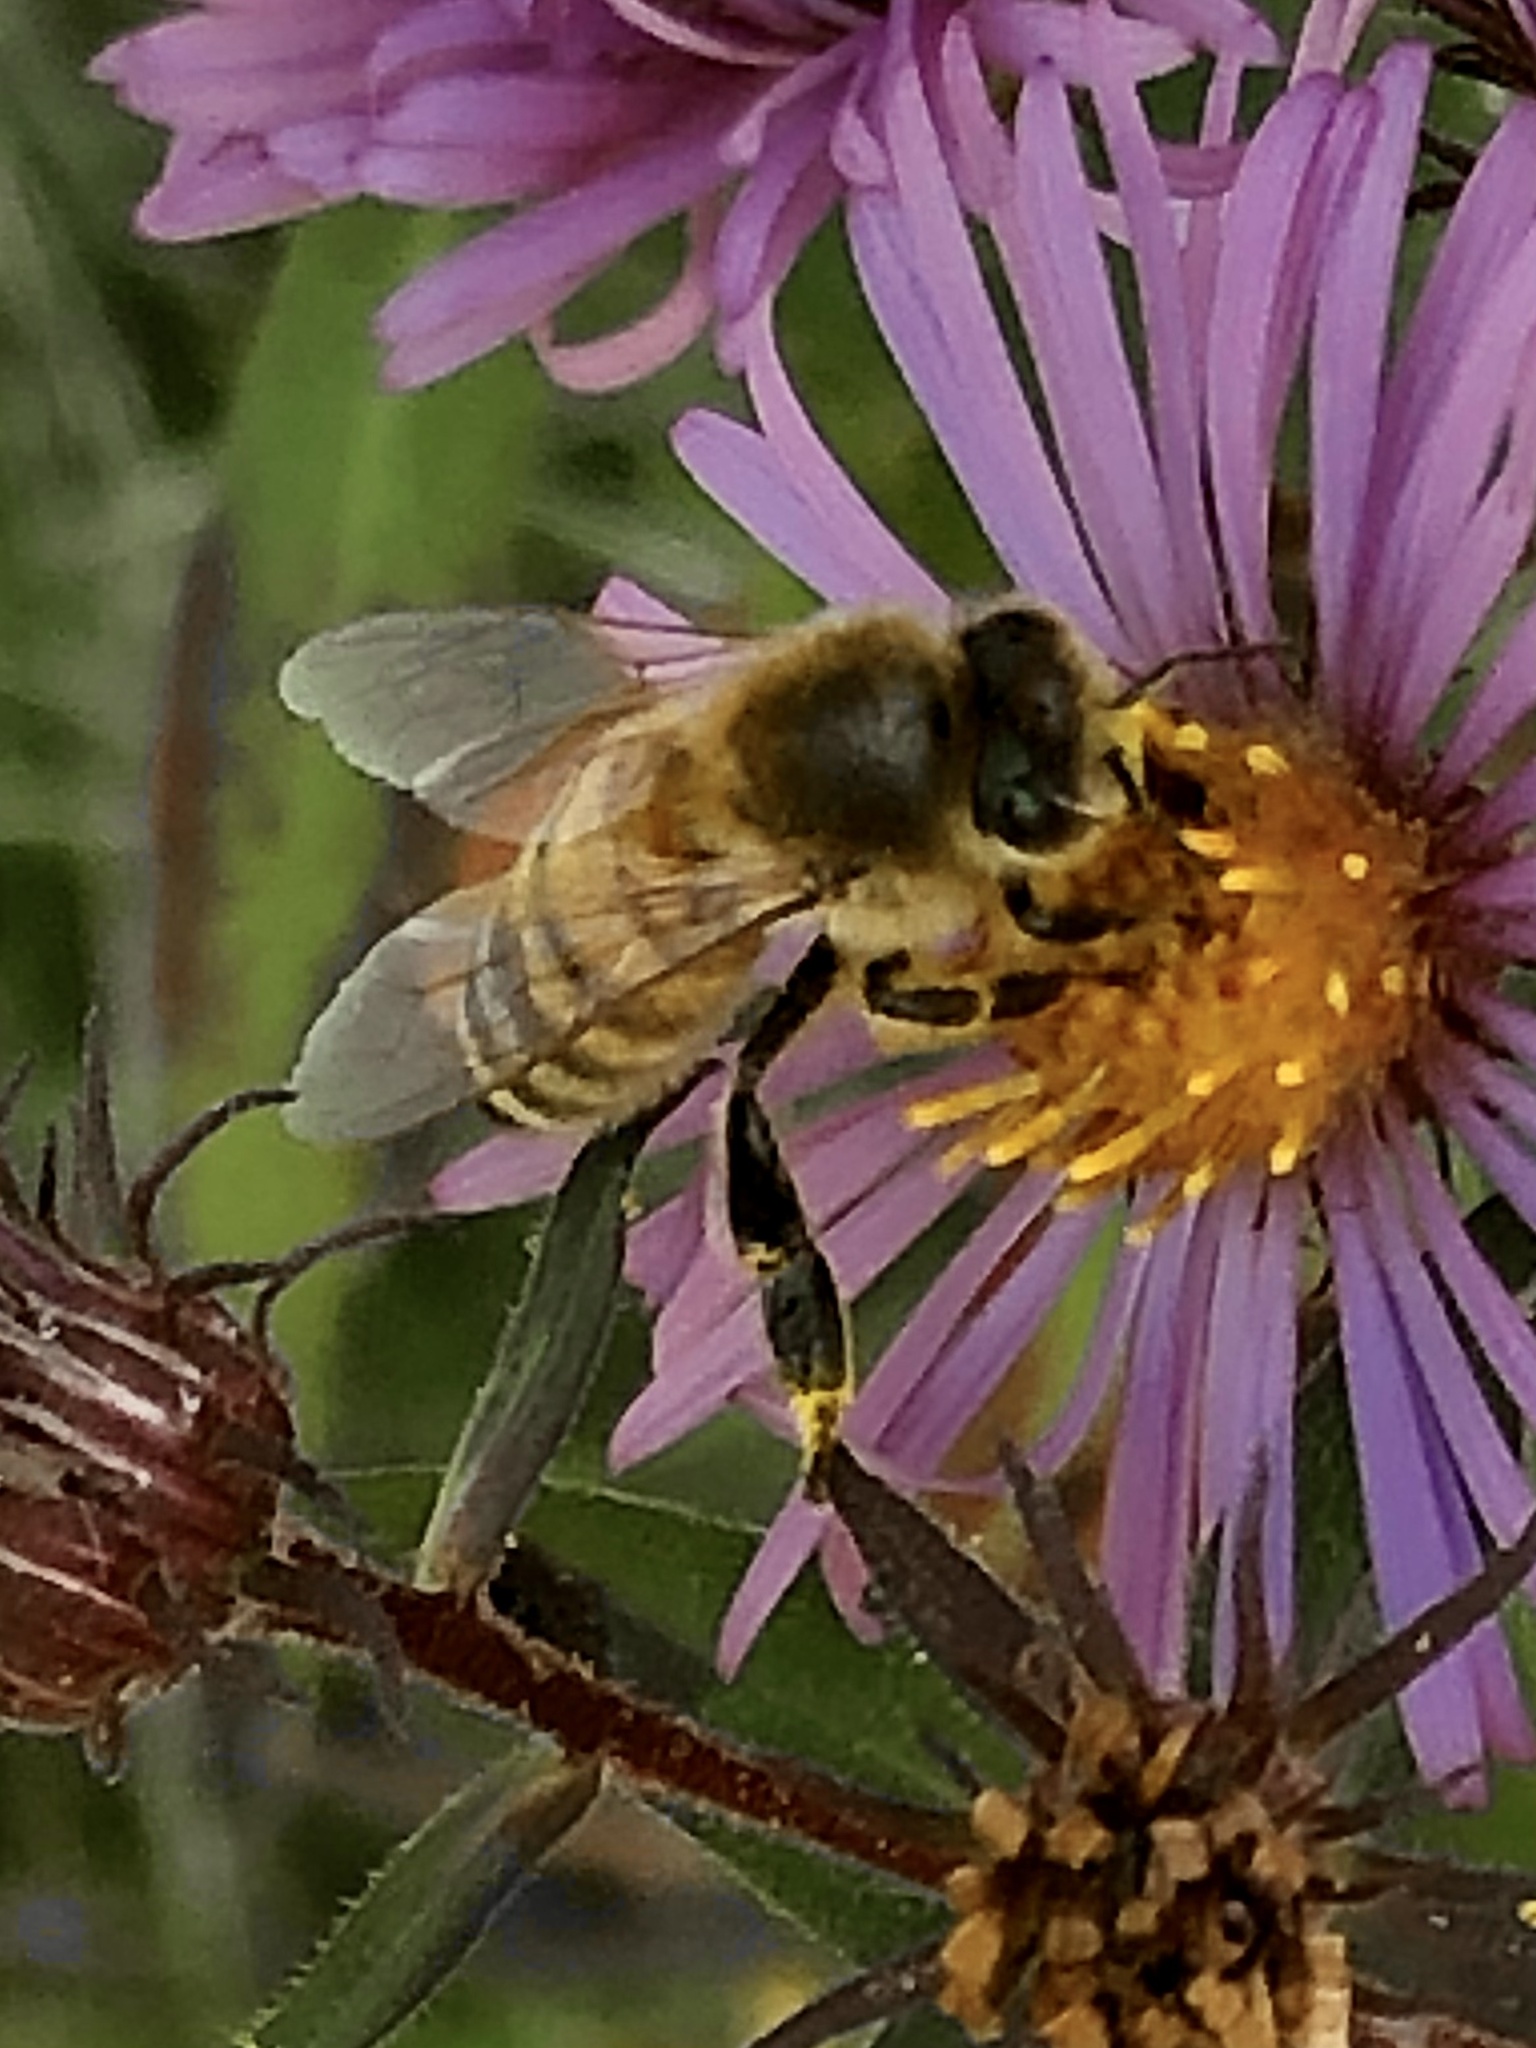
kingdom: Animalia
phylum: Arthropoda
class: Insecta
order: Hymenoptera
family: Apidae
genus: Apis
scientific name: Apis mellifera
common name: Honey bee
